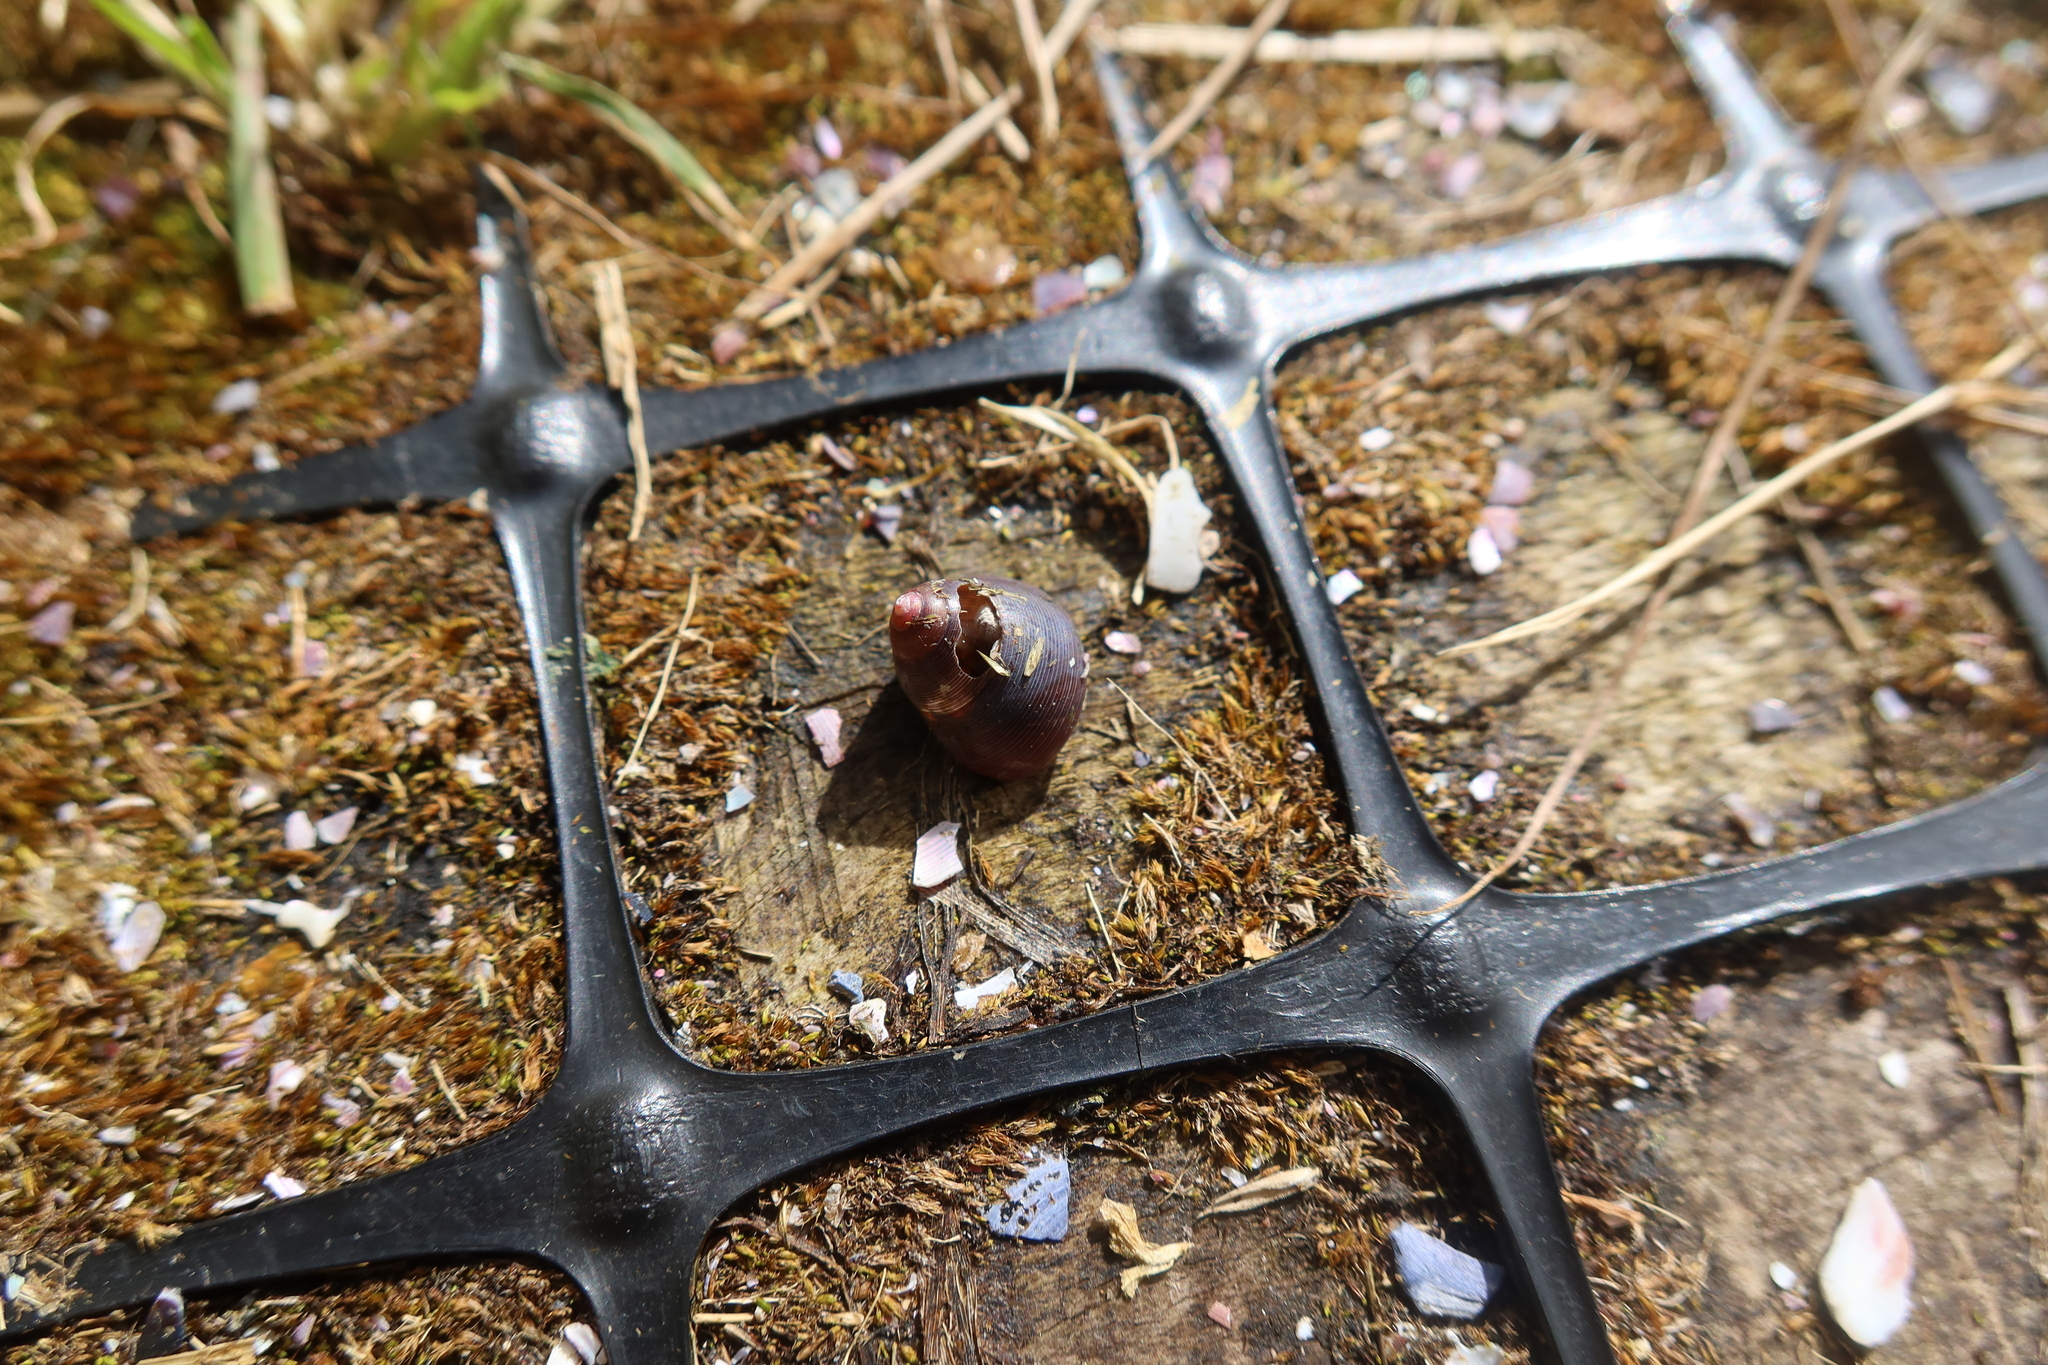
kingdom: Animalia
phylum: Mollusca
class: Gastropoda
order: Trochida
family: Trochidae
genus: Cantharidus
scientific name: Cantharidus capillaceus
